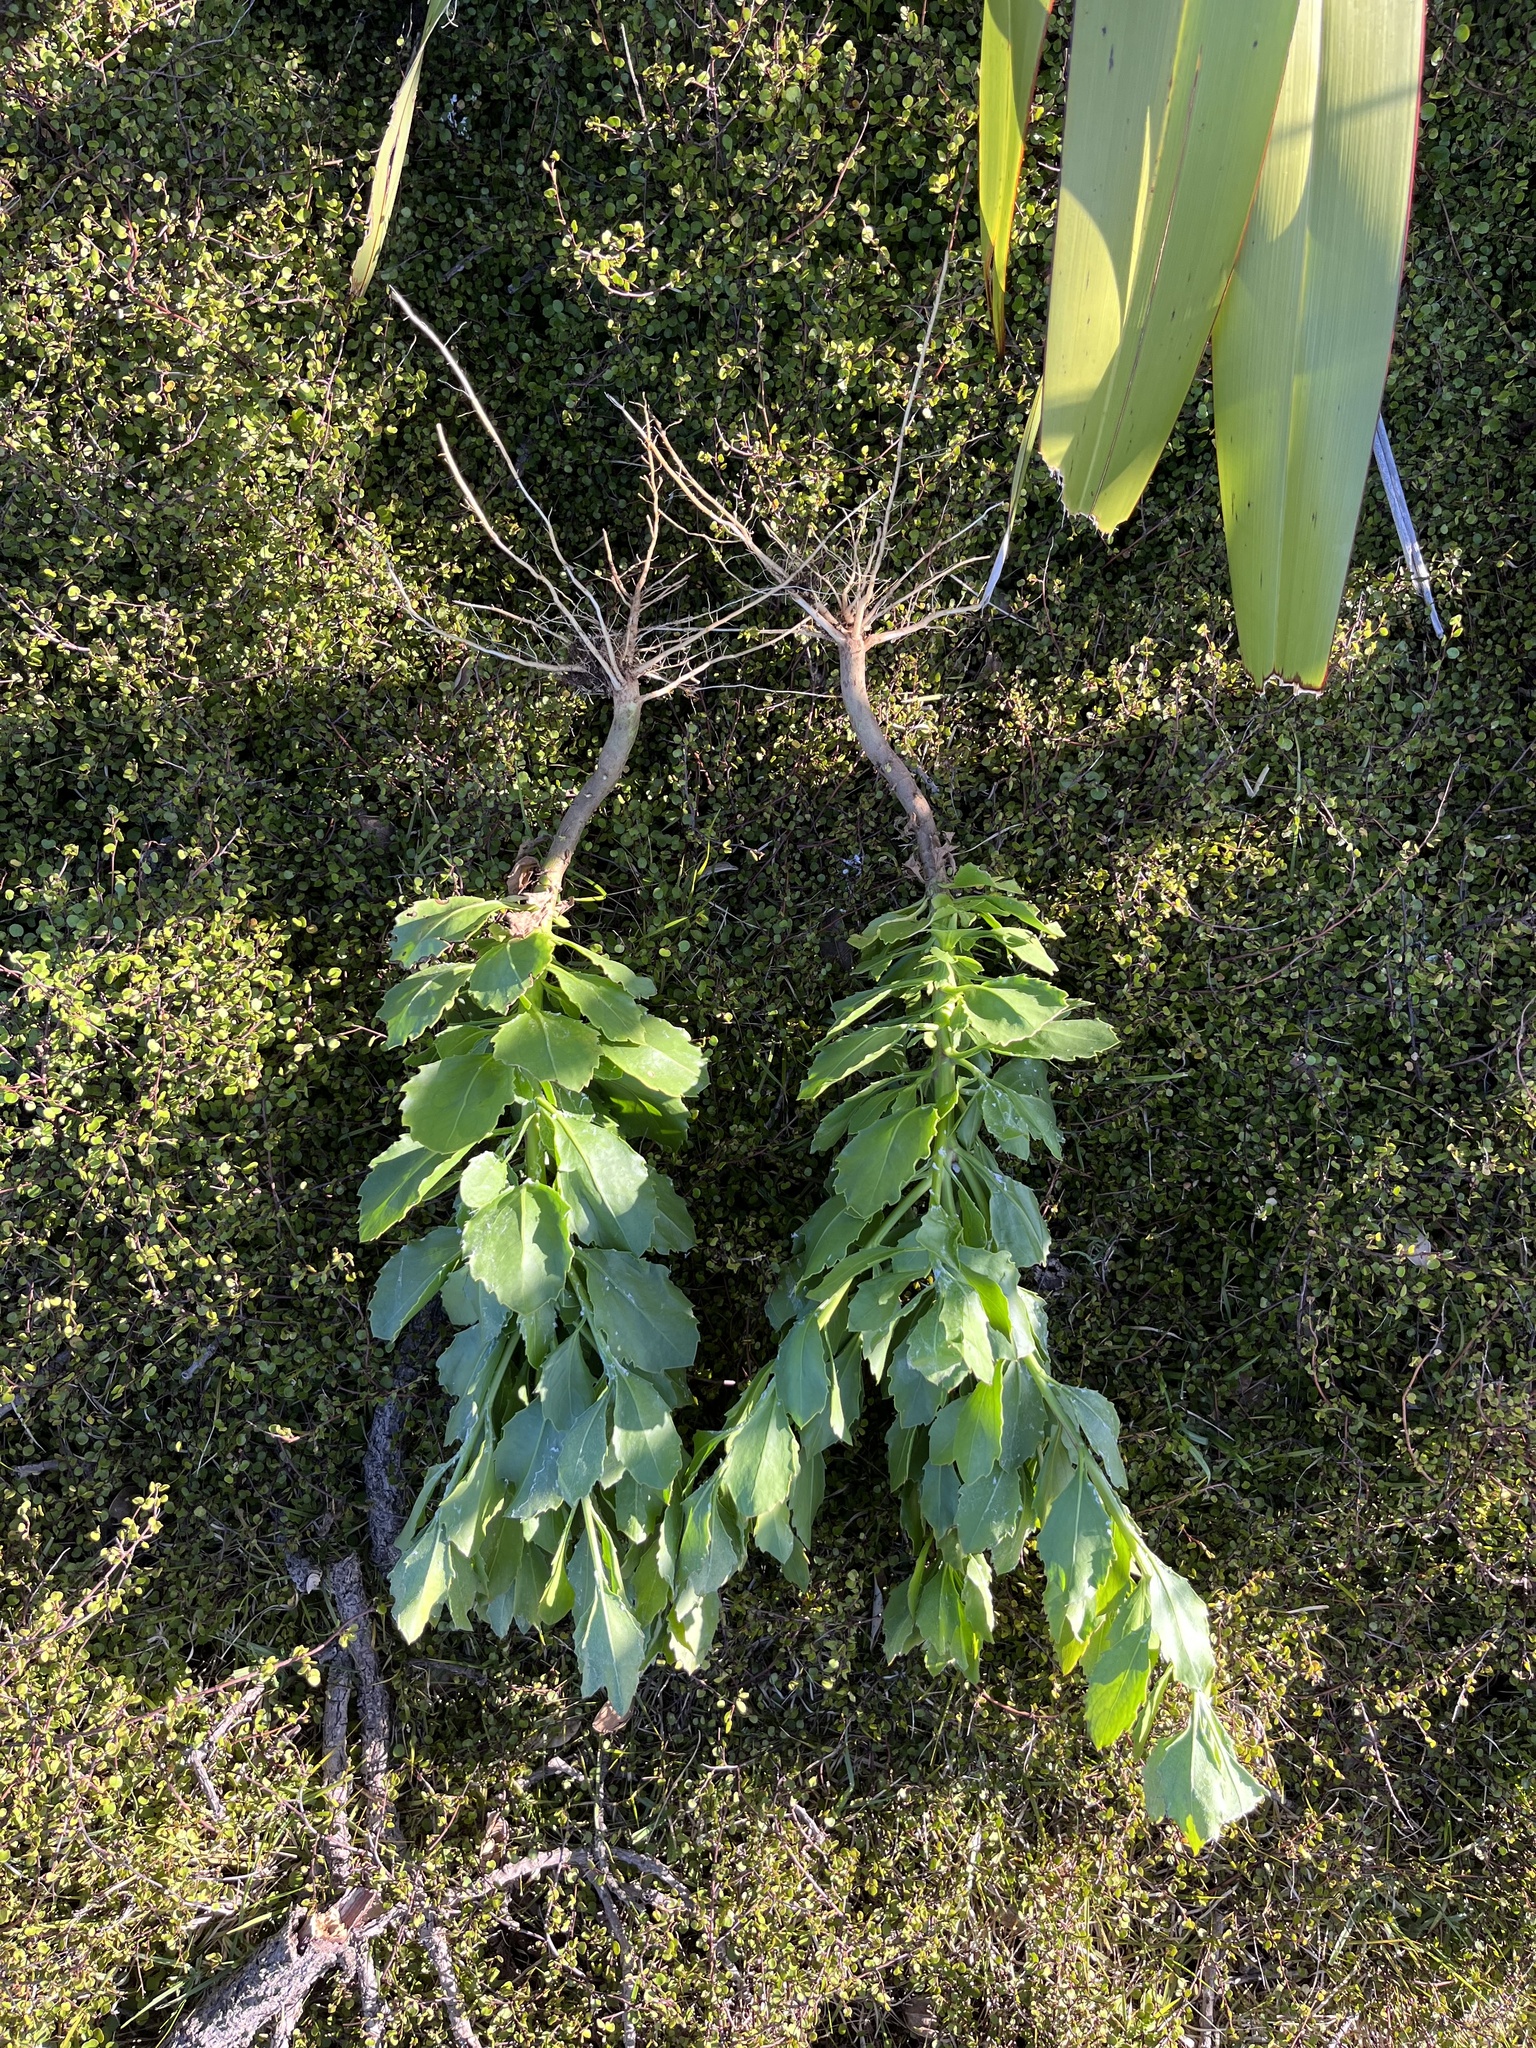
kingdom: Plantae
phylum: Tracheophyta
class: Magnoliopsida
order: Asterales
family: Asteraceae
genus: Osteospermum
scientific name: Osteospermum moniliferum
